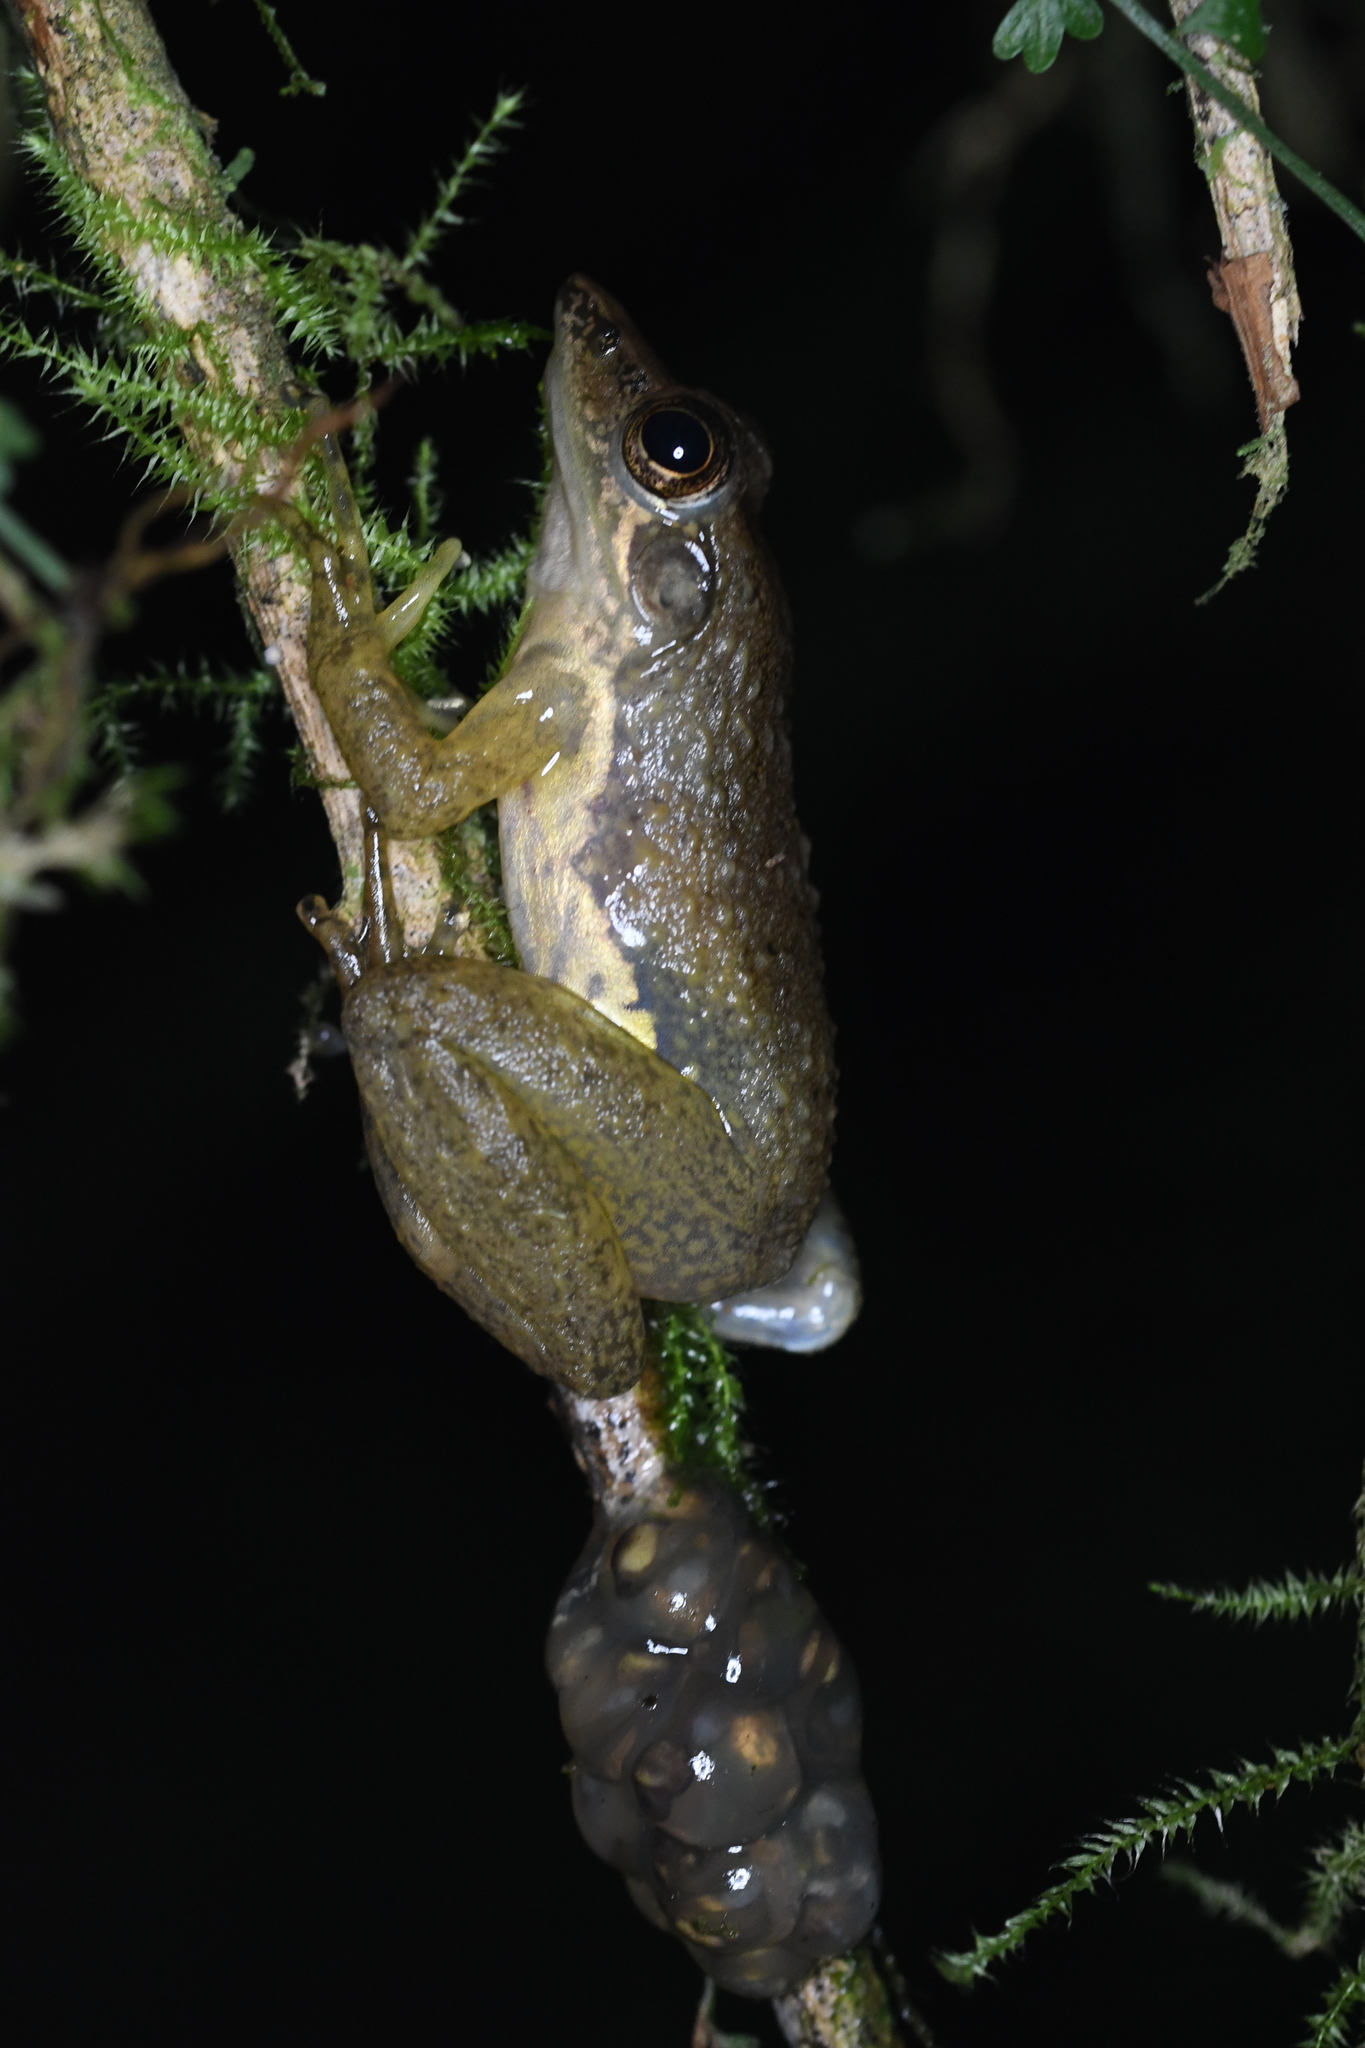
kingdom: Animalia
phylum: Chordata
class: Amphibia
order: Anura
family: Mantellidae
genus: Mantidactylus
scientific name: Mantidactylus majori
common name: Ivohimanita madagascar frog
